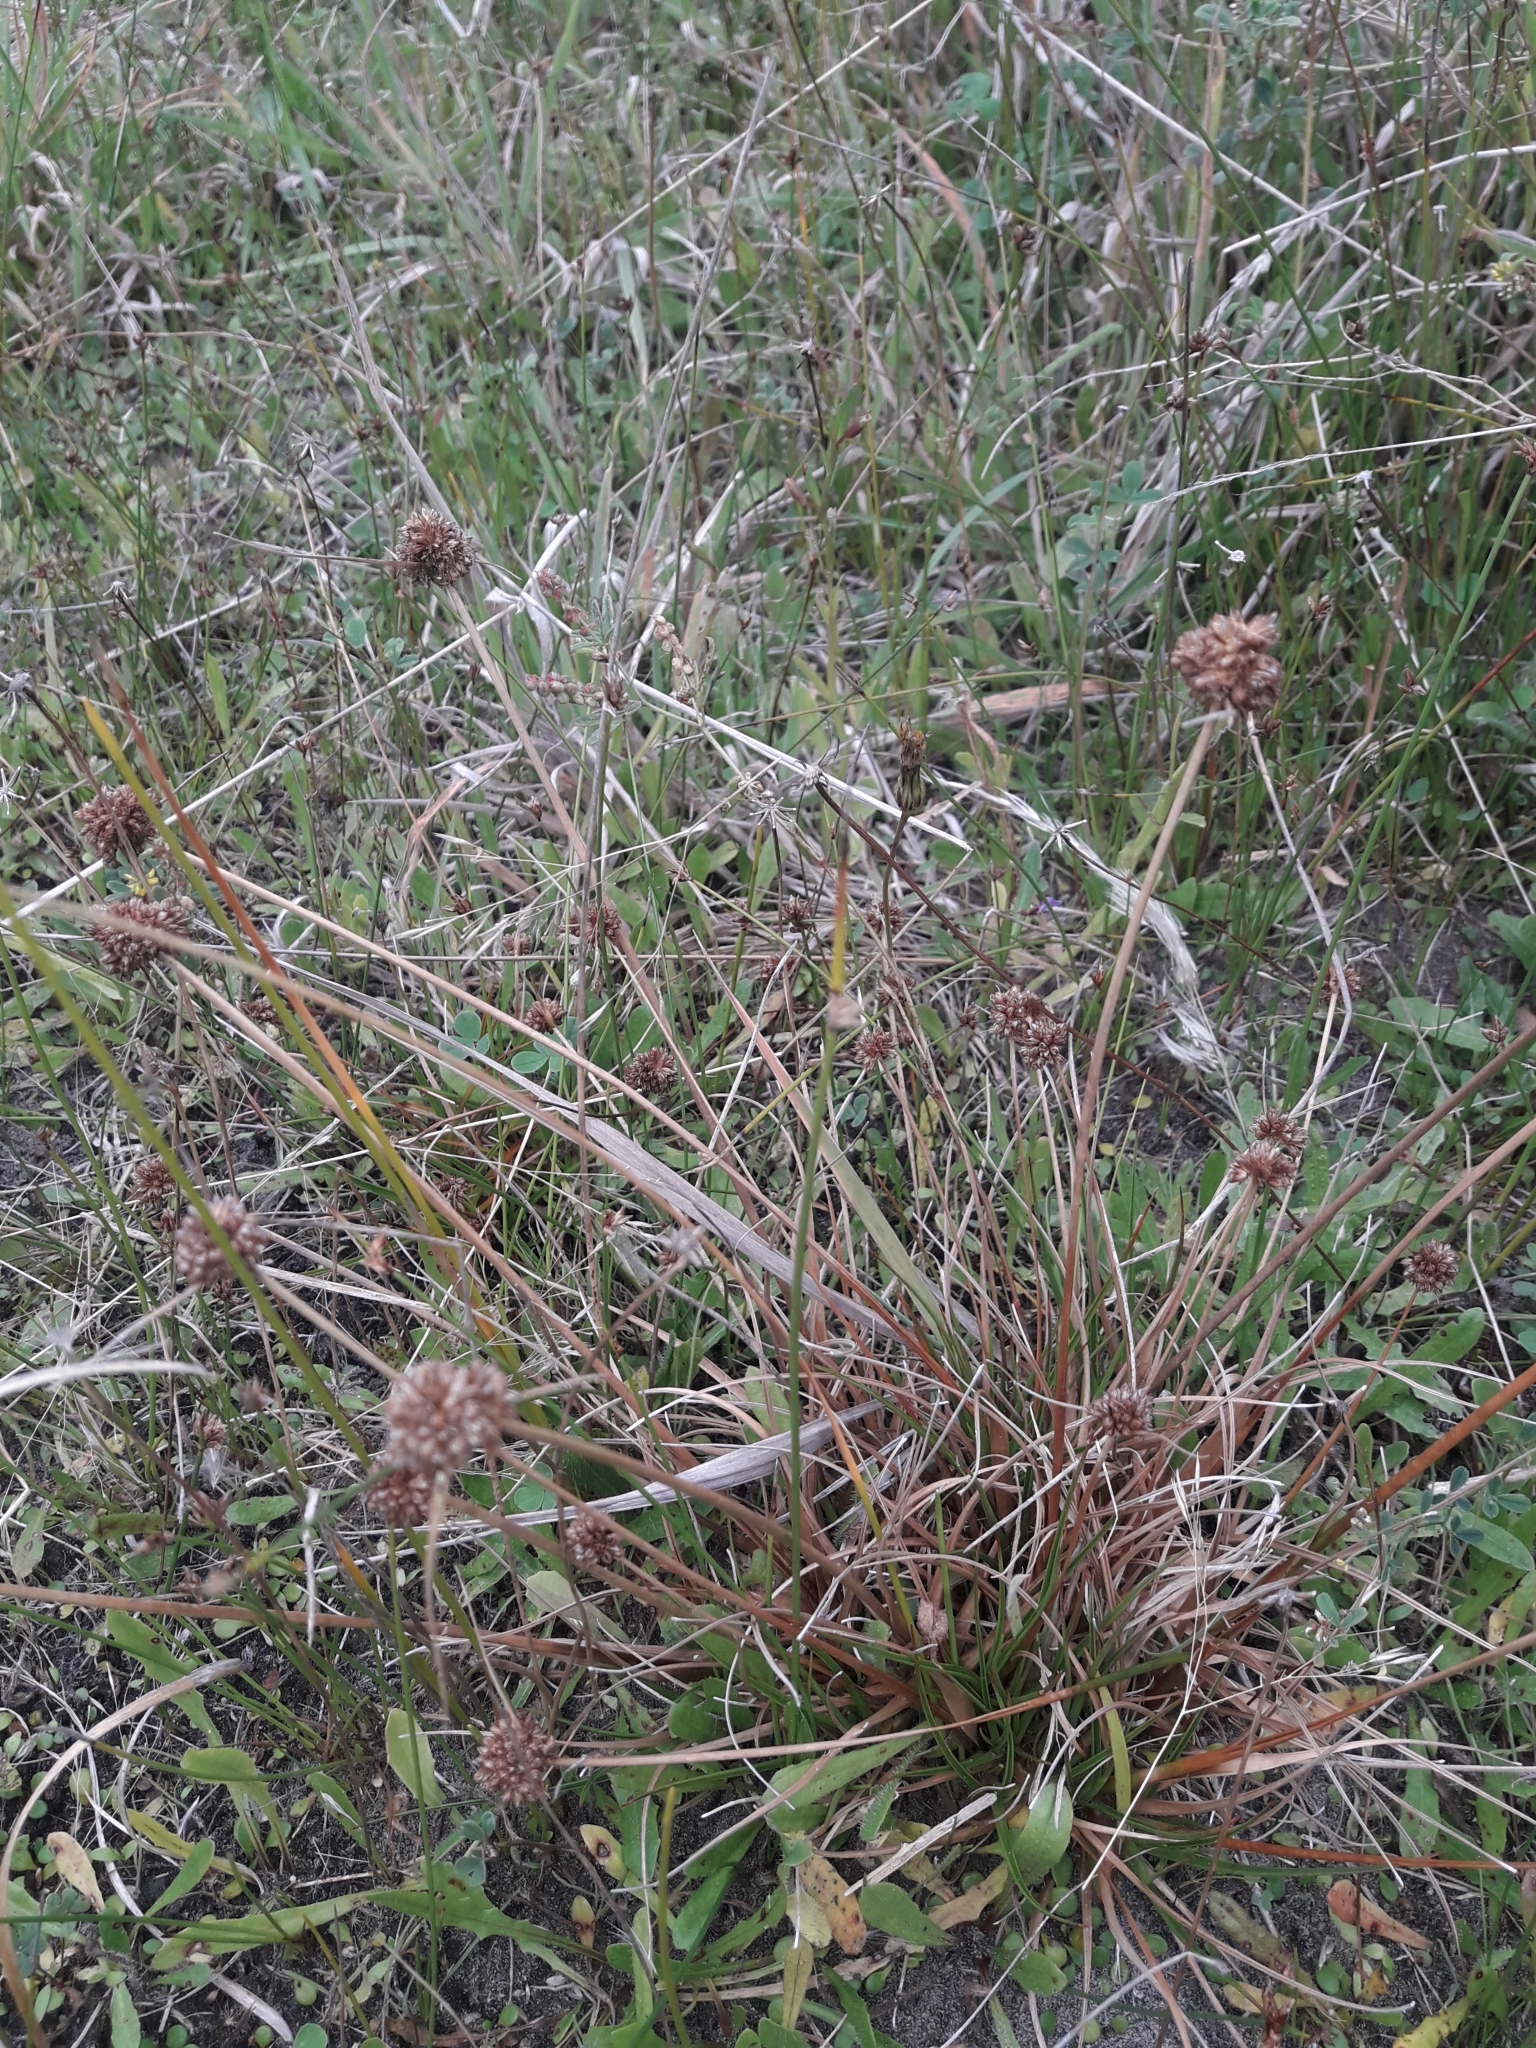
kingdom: Plantae
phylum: Tracheophyta
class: Liliopsida
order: Poales
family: Juncaceae
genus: Juncus
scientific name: Juncus caespiticius
